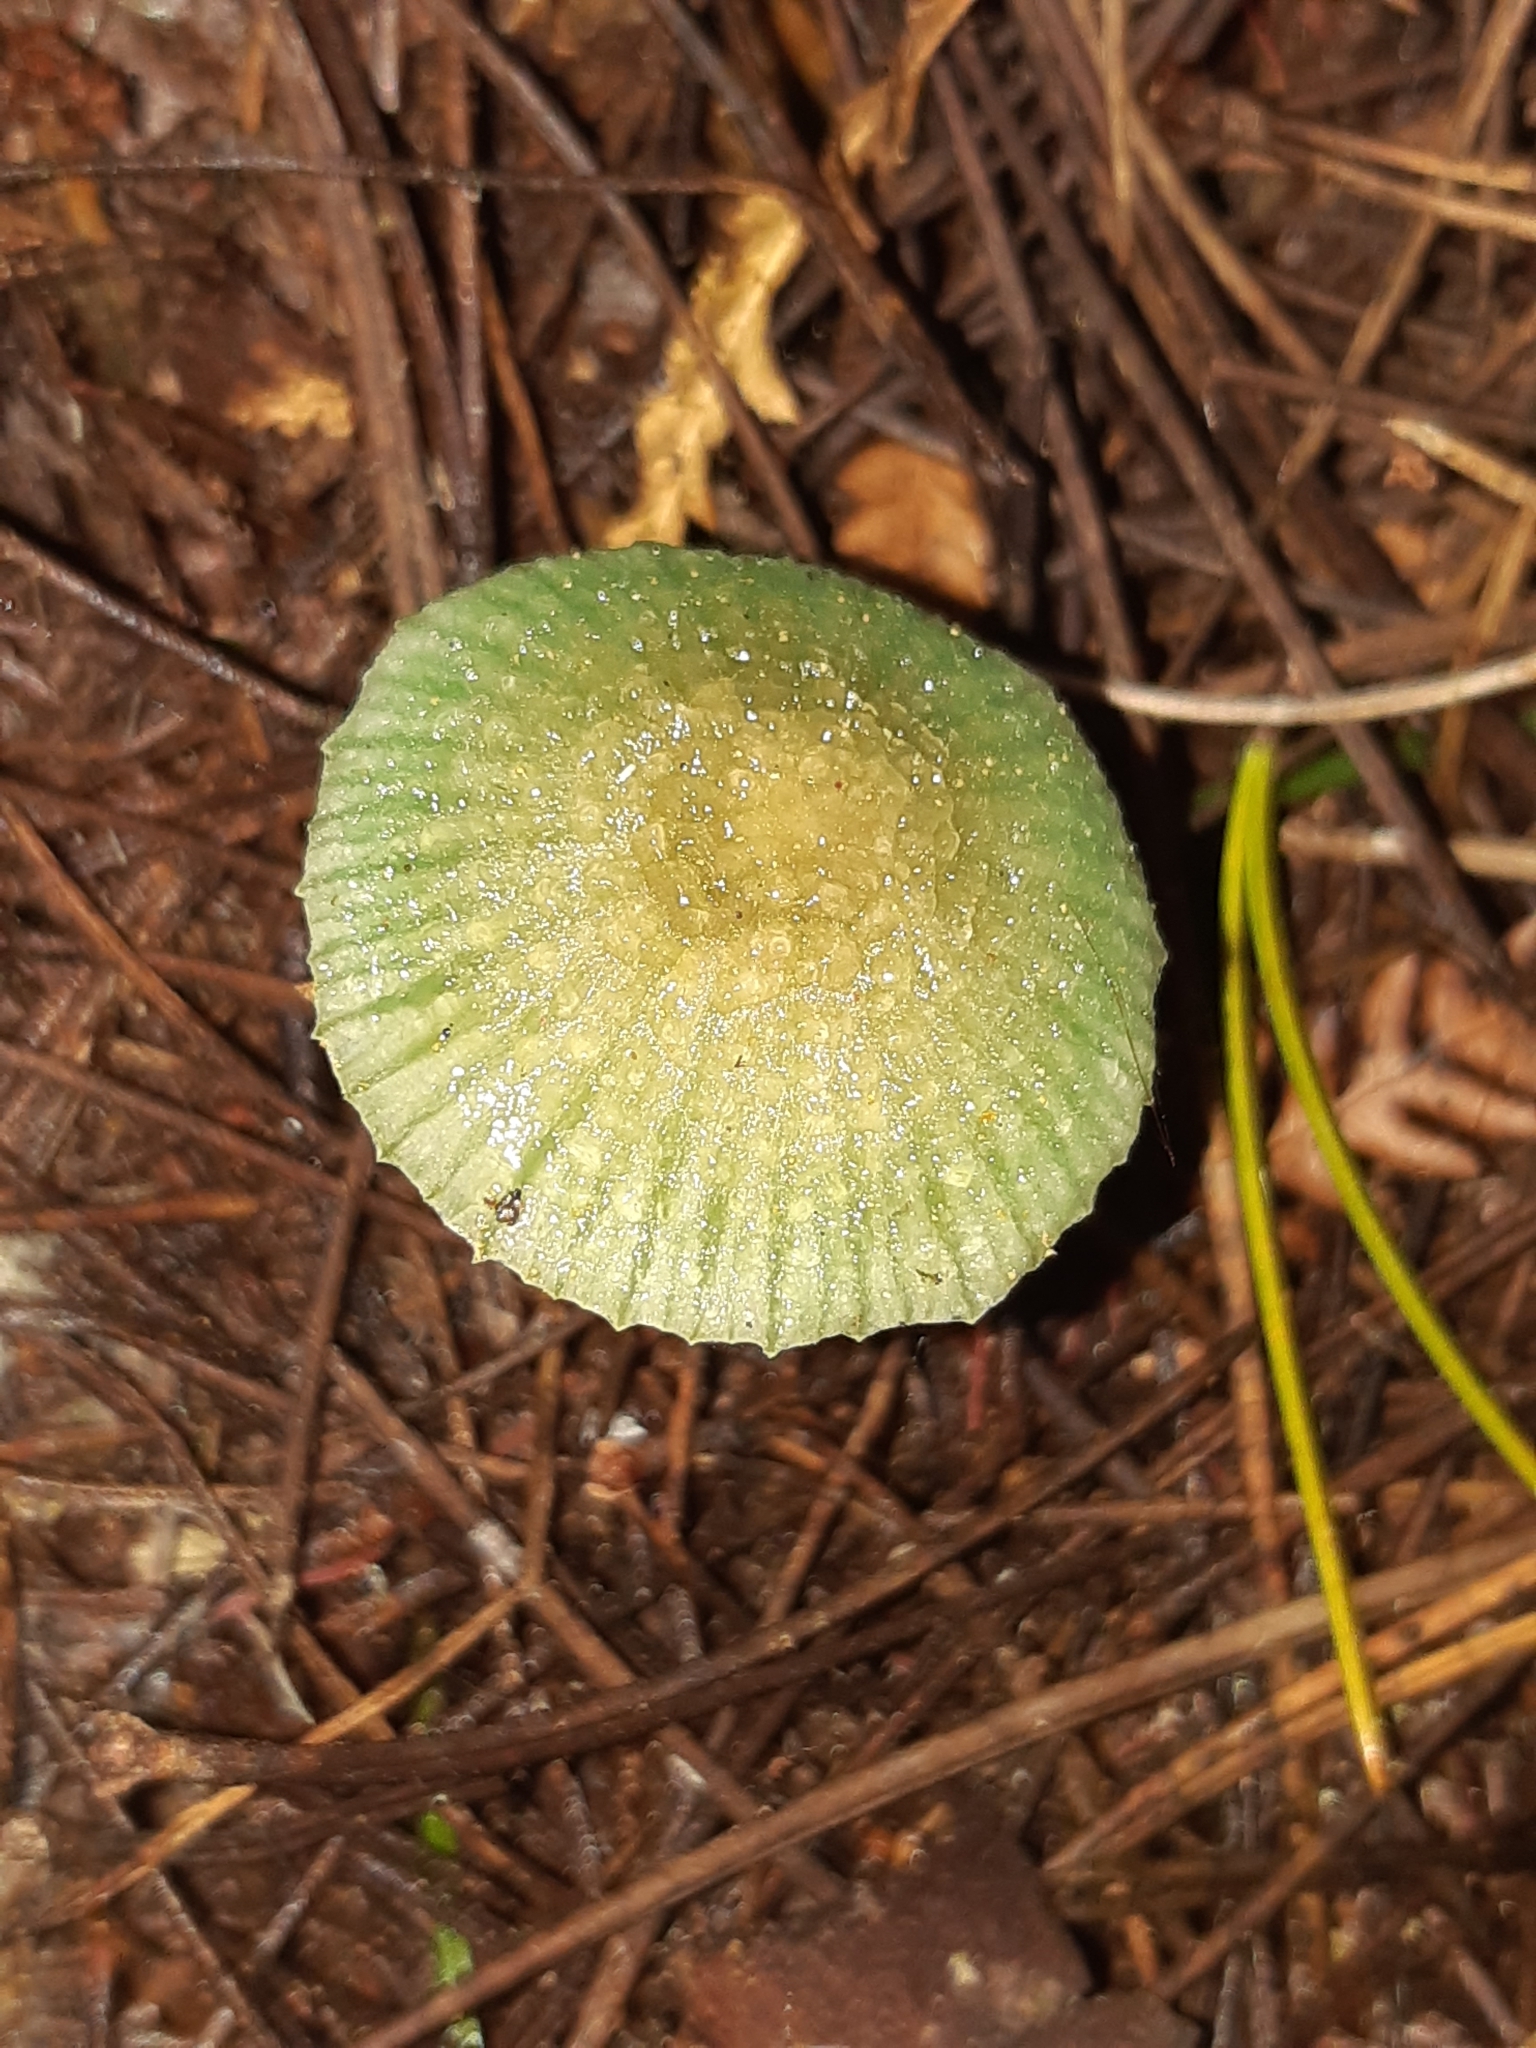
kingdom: Fungi
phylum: Basidiomycota
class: Agaricomycetes
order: Agaricales
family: Hygrophoraceae
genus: Gliophorus
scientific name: Gliophorus graminicolor
